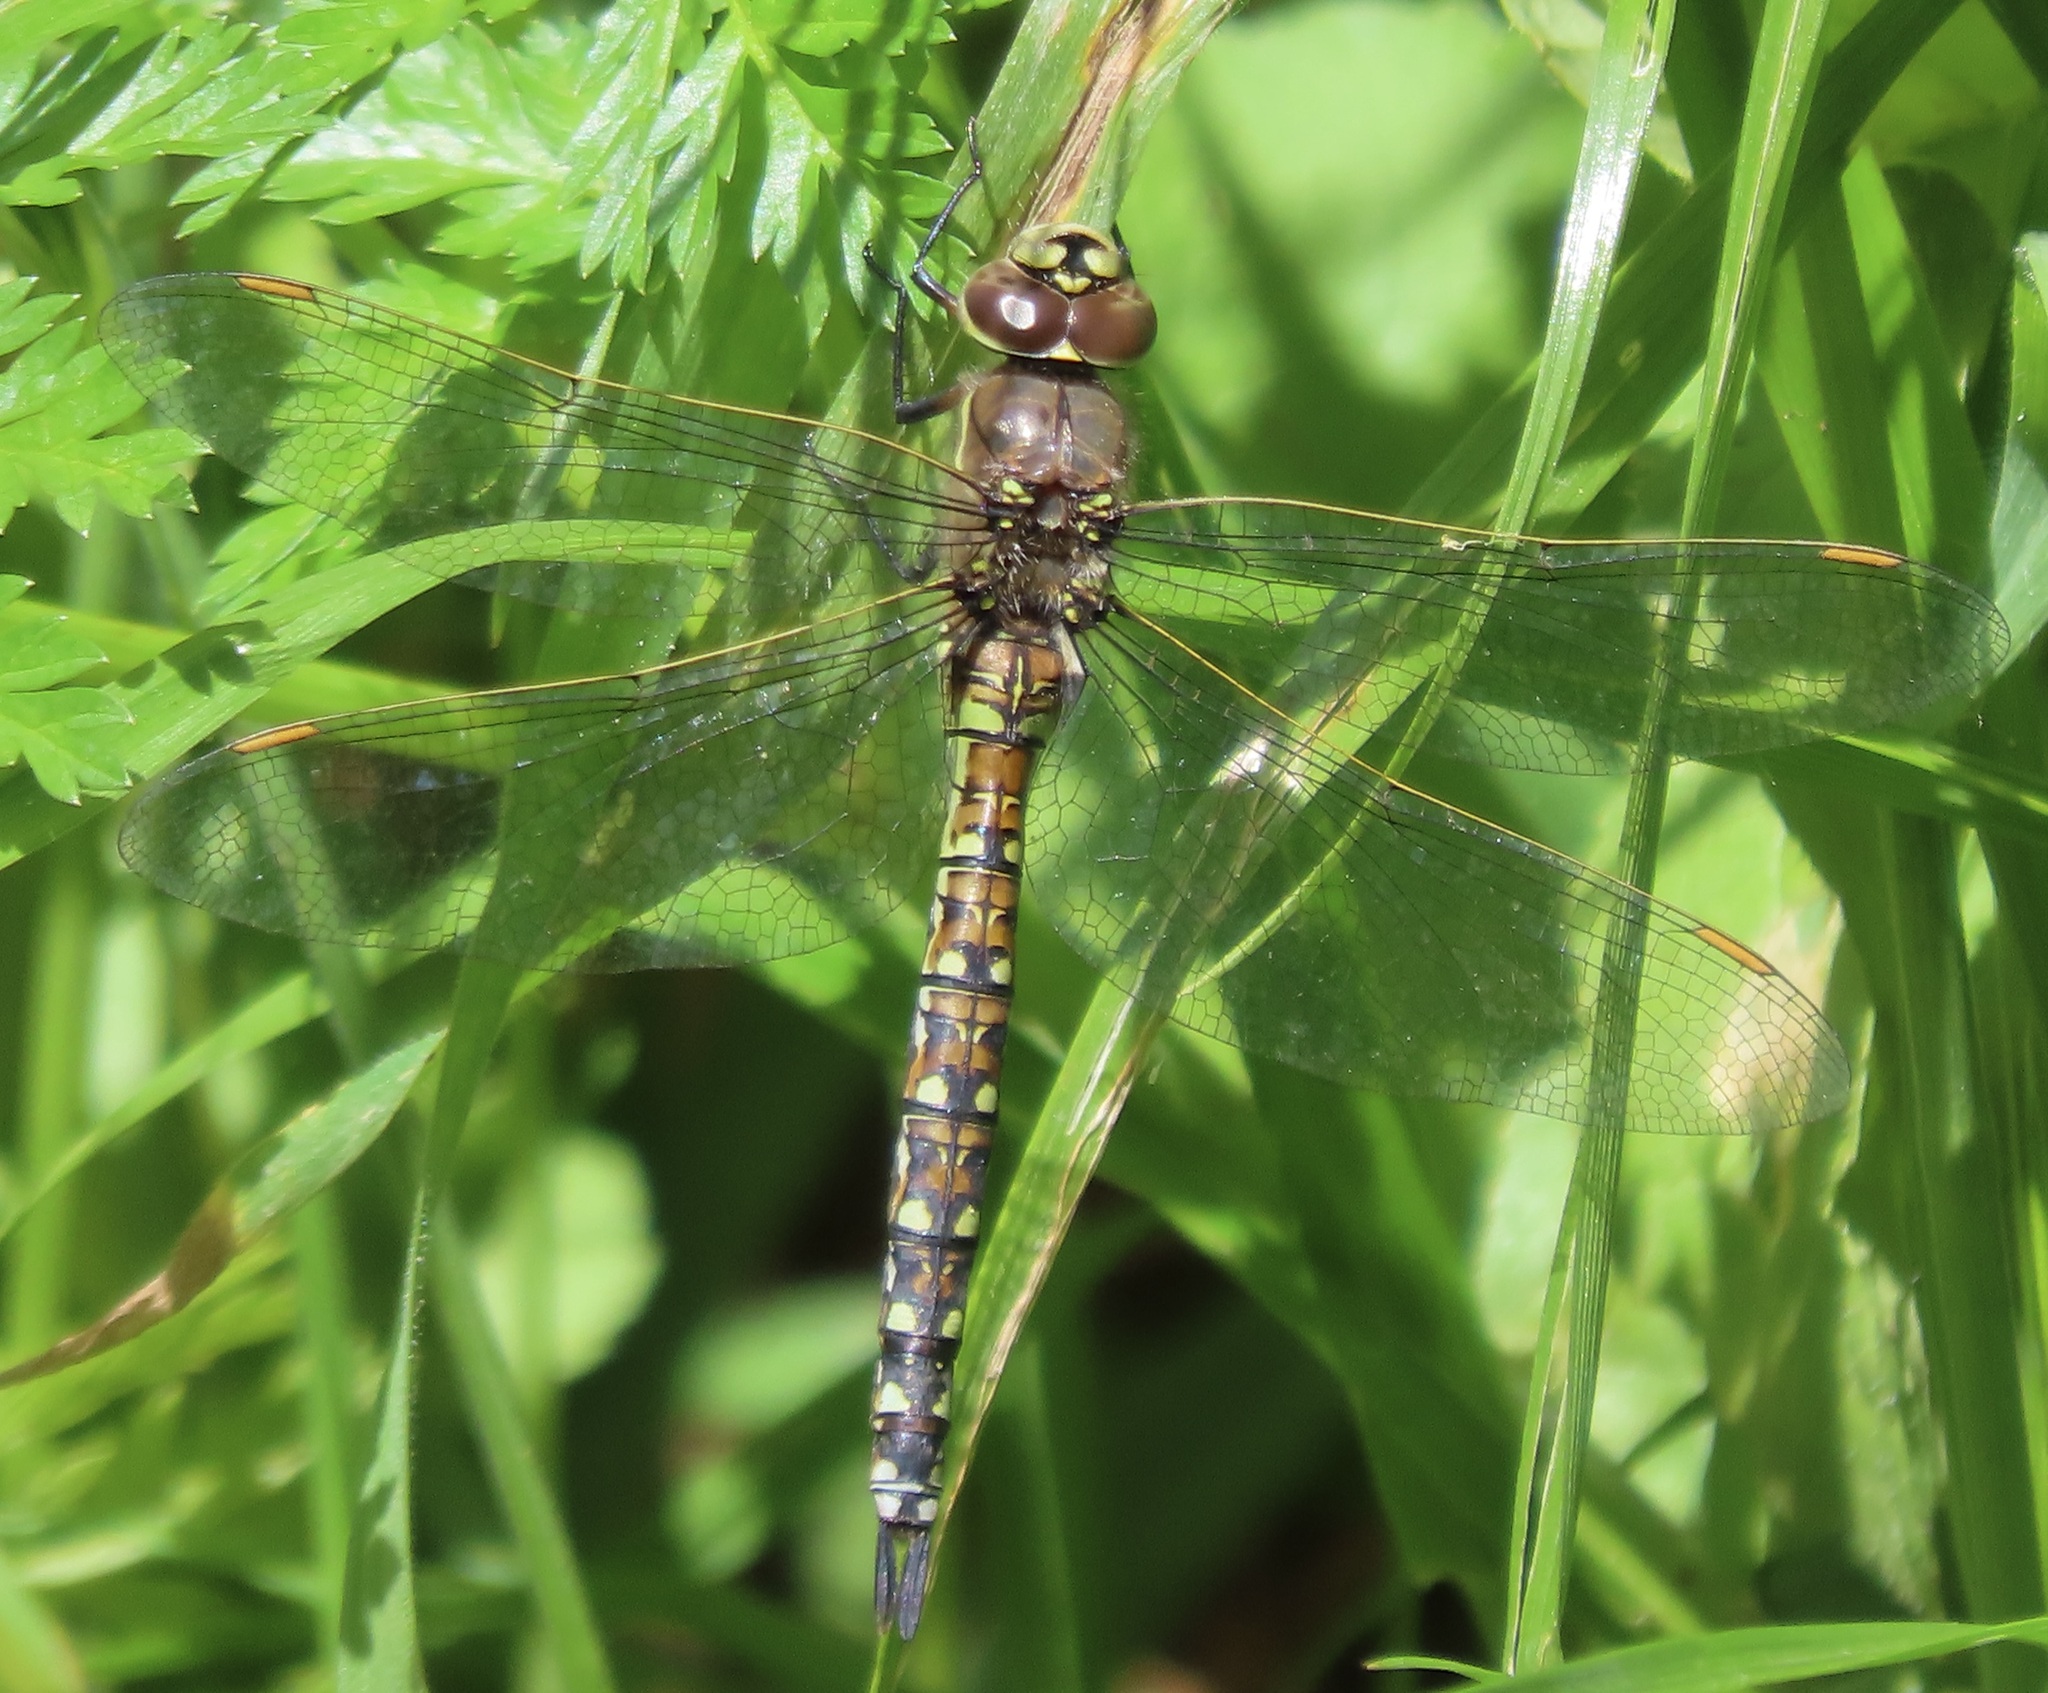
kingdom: Animalia
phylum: Arthropoda
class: Insecta
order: Odonata
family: Aeshnidae
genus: Rhionaeschna
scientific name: Rhionaeschna californica
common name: California darner
